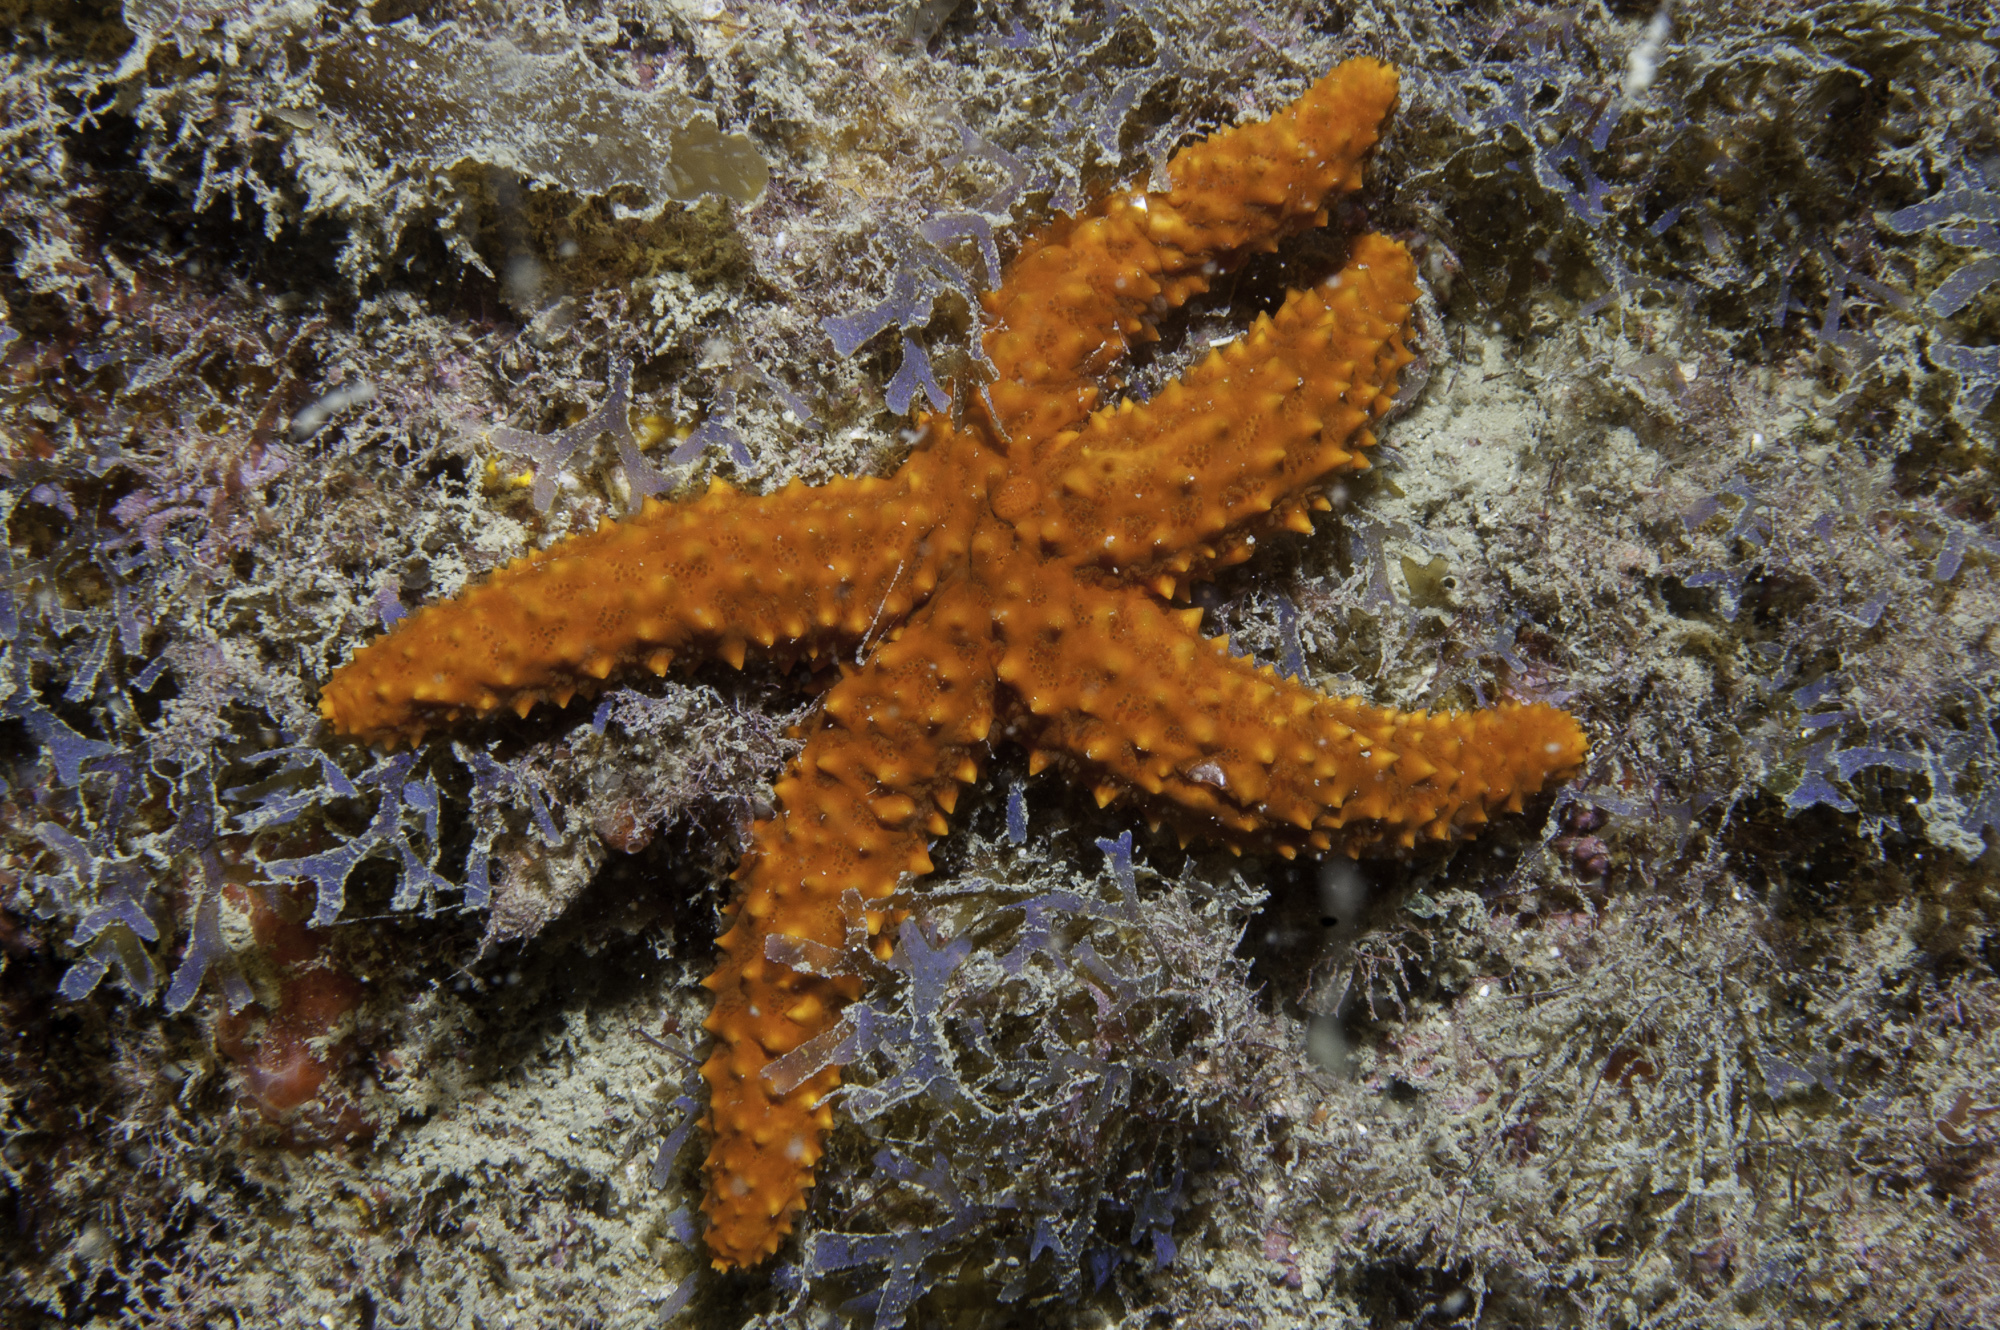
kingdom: Animalia
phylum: Echinodermata
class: Asteroidea
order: Spinulosida
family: Echinasteridae
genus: Echinaster
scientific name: Echinaster brasiliensis
